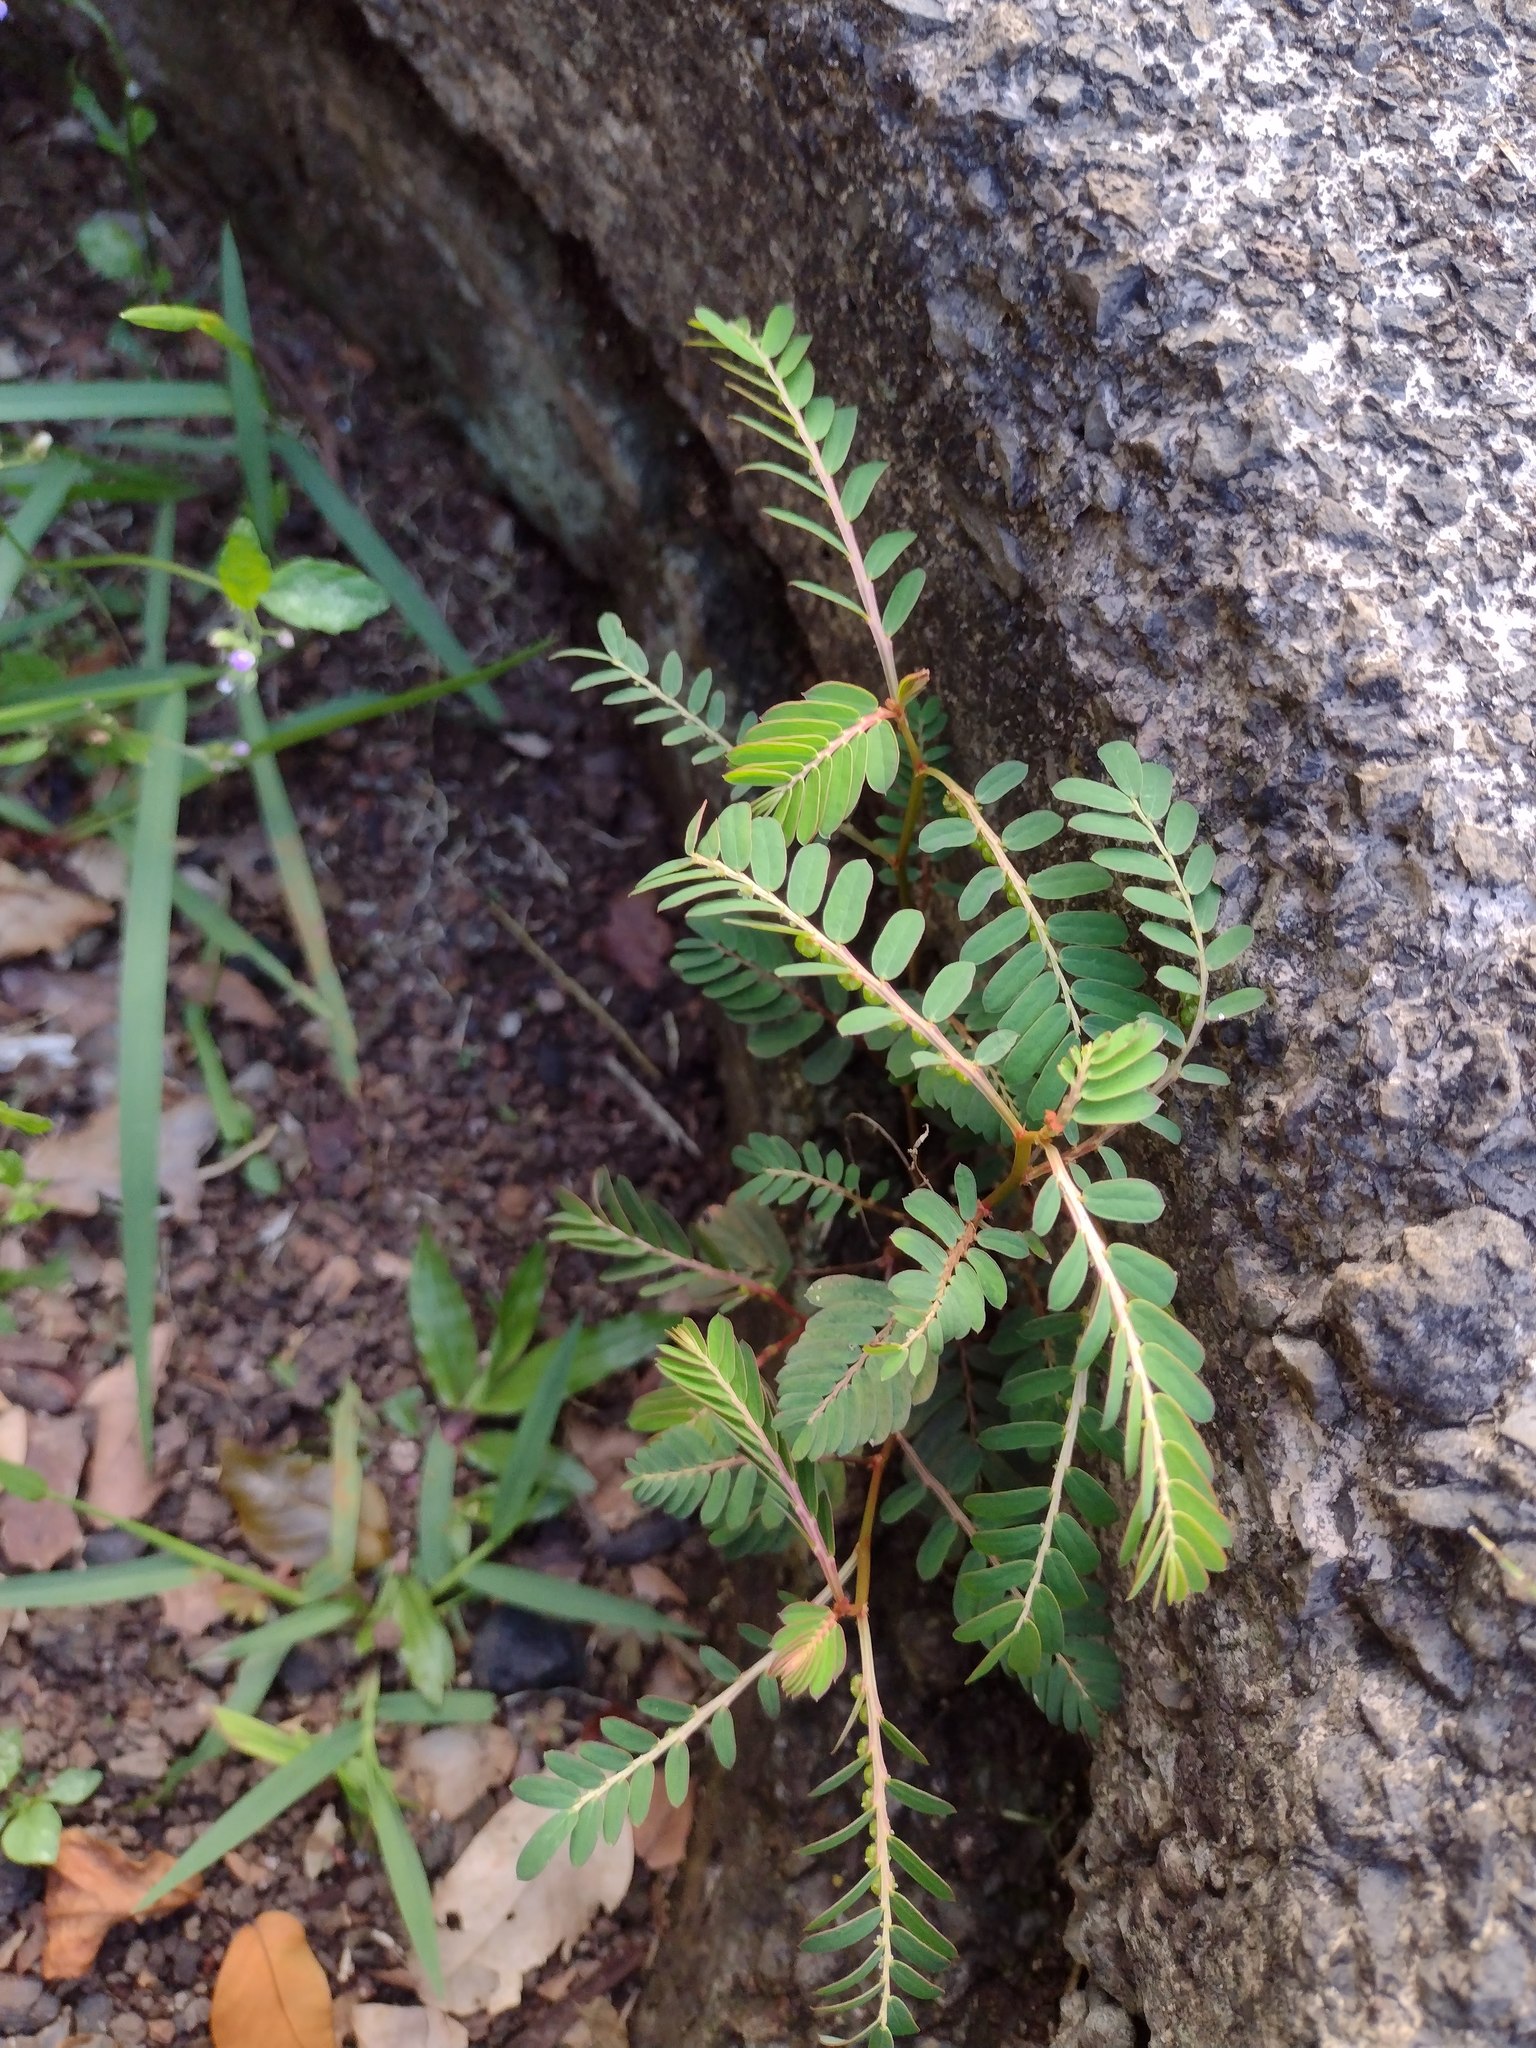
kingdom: Plantae
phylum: Tracheophyta
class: Magnoliopsida
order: Malpighiales
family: Phyllanthaceae
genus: Phyllanthus
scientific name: Phyllanthus urinaria
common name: Chamber bitter
